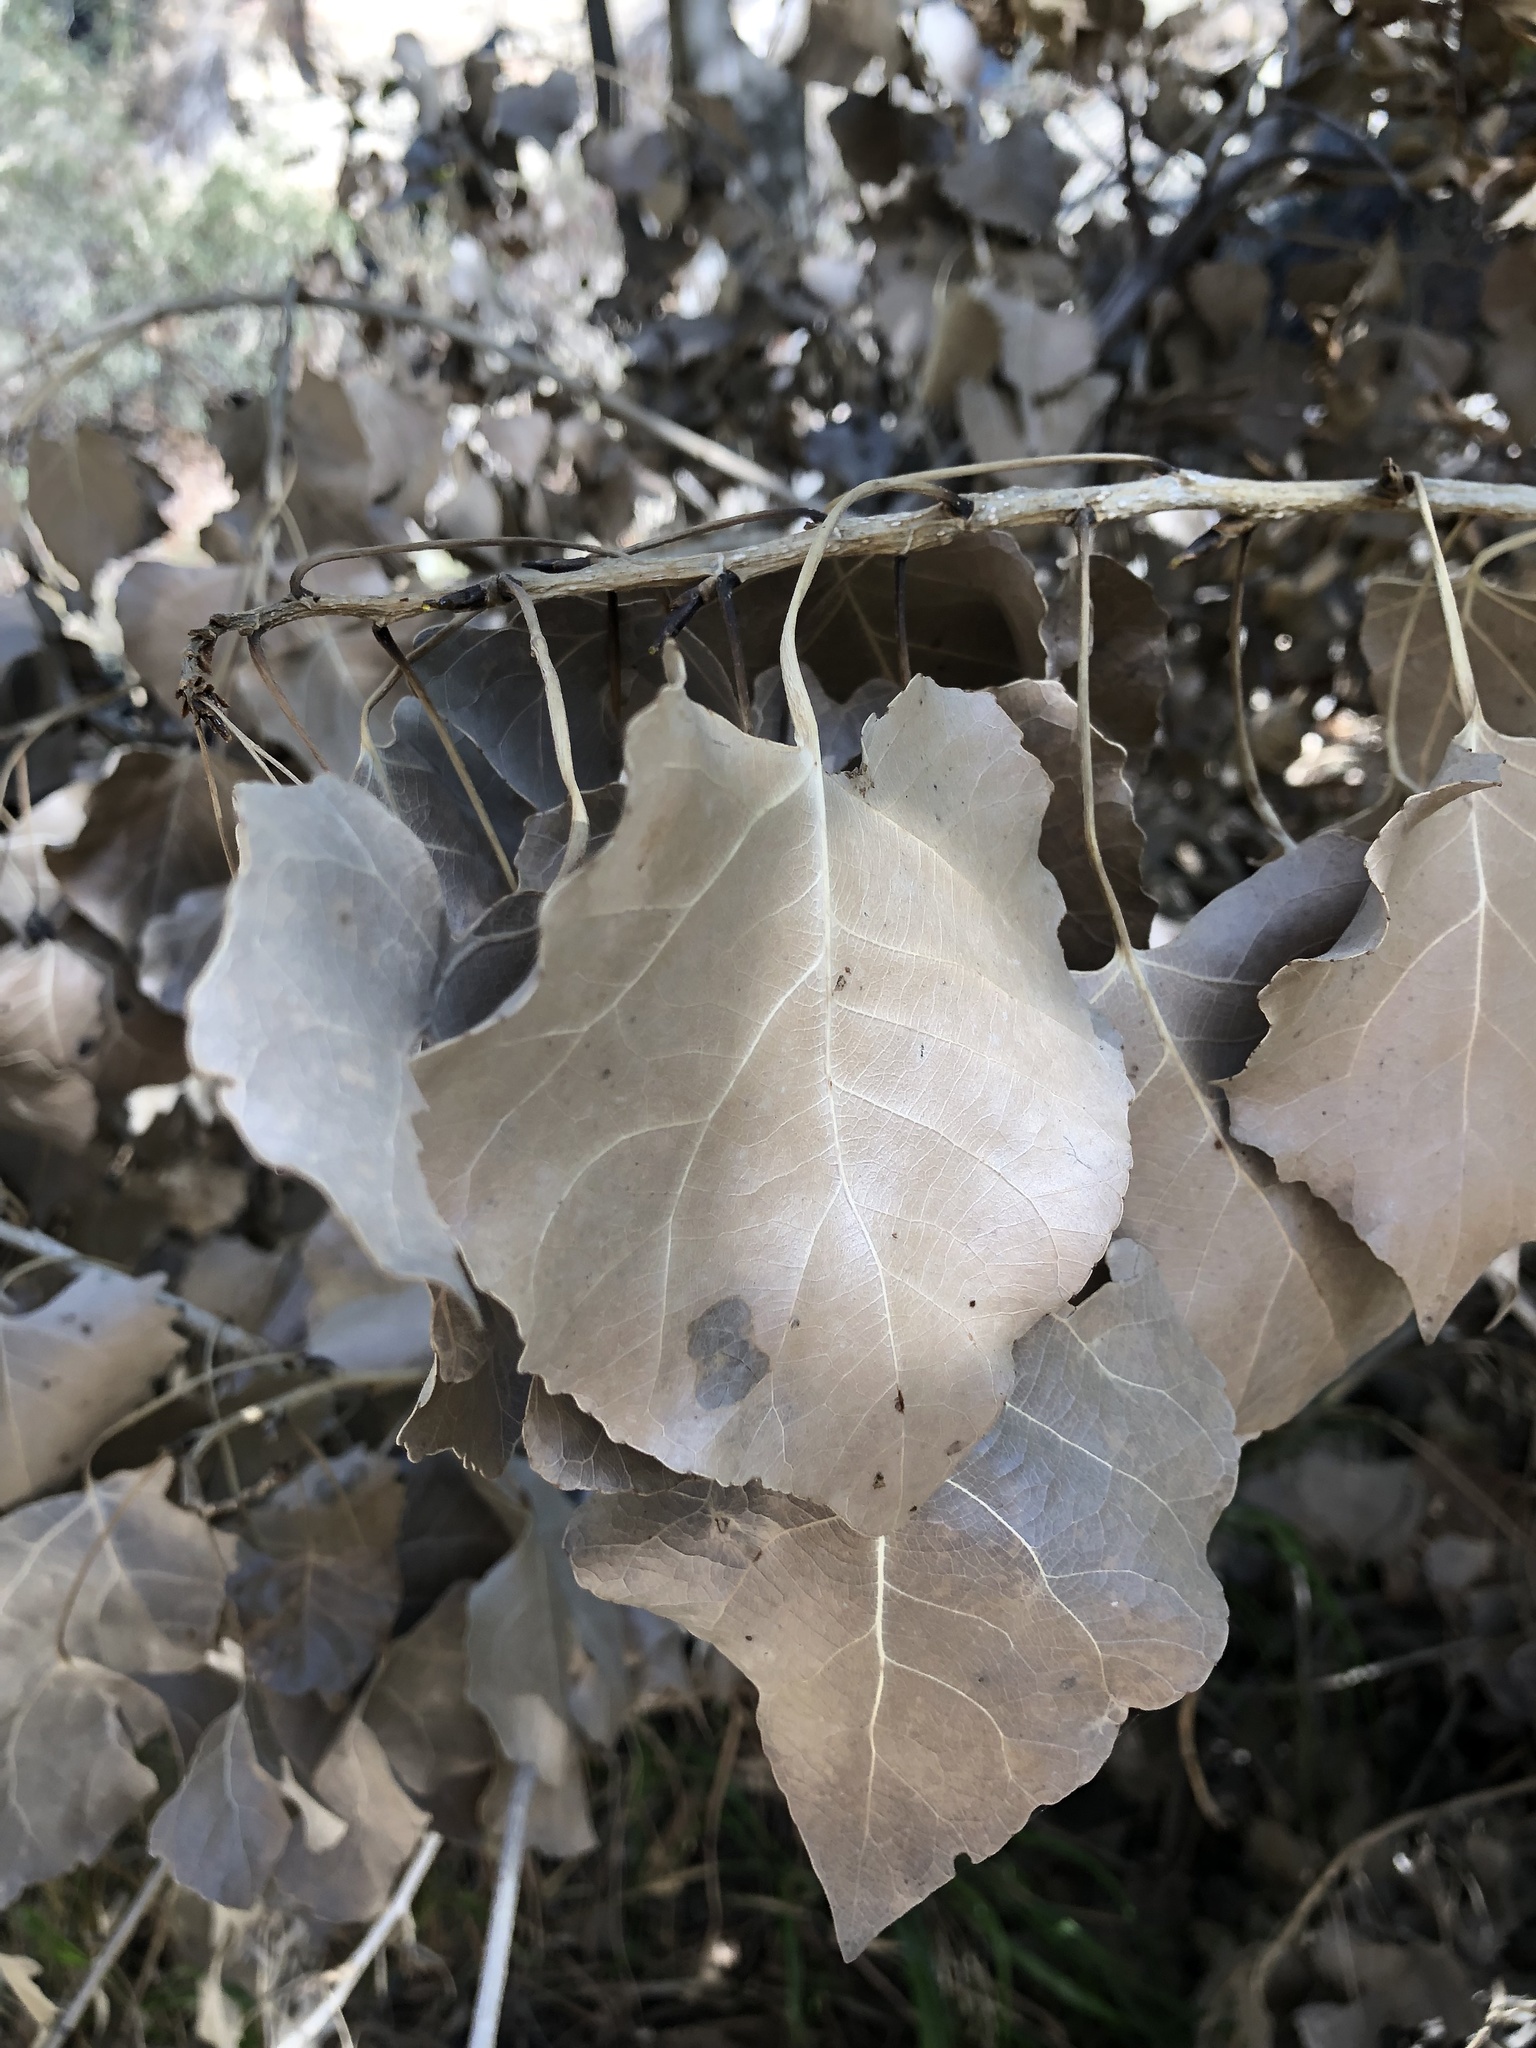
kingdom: Plantae
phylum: Tracheophyta
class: Magnoliopsida
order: Malpighiales
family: Salicaceae
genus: Populus
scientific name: Populus trichocarpa
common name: Black cottonwood
